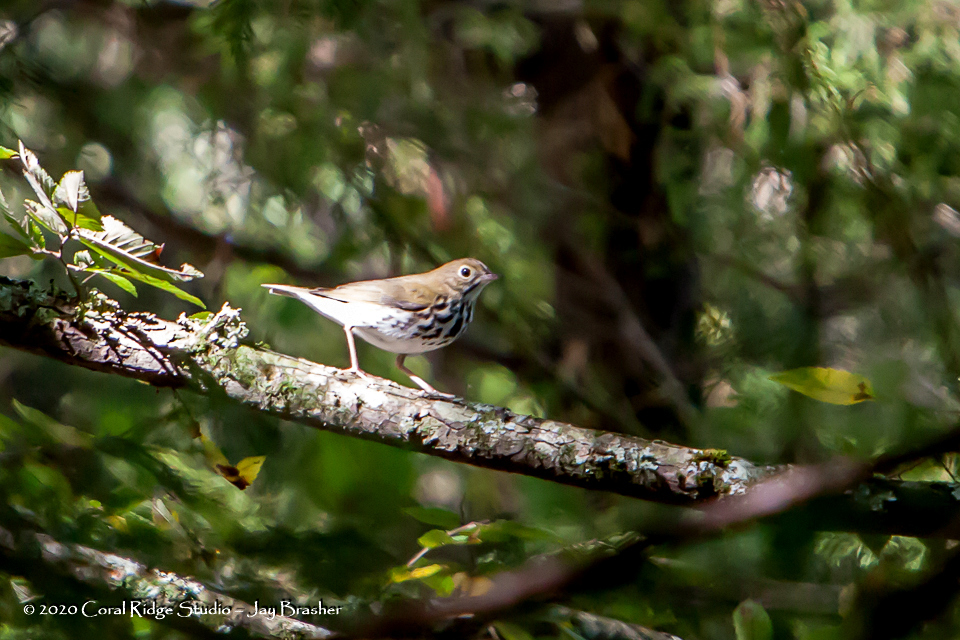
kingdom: Animalia
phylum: Chordata
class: Aves
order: Passeriformes
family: Parulidae
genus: Seiurus
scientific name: Seiurus aurocapilla
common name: Ovenbird
